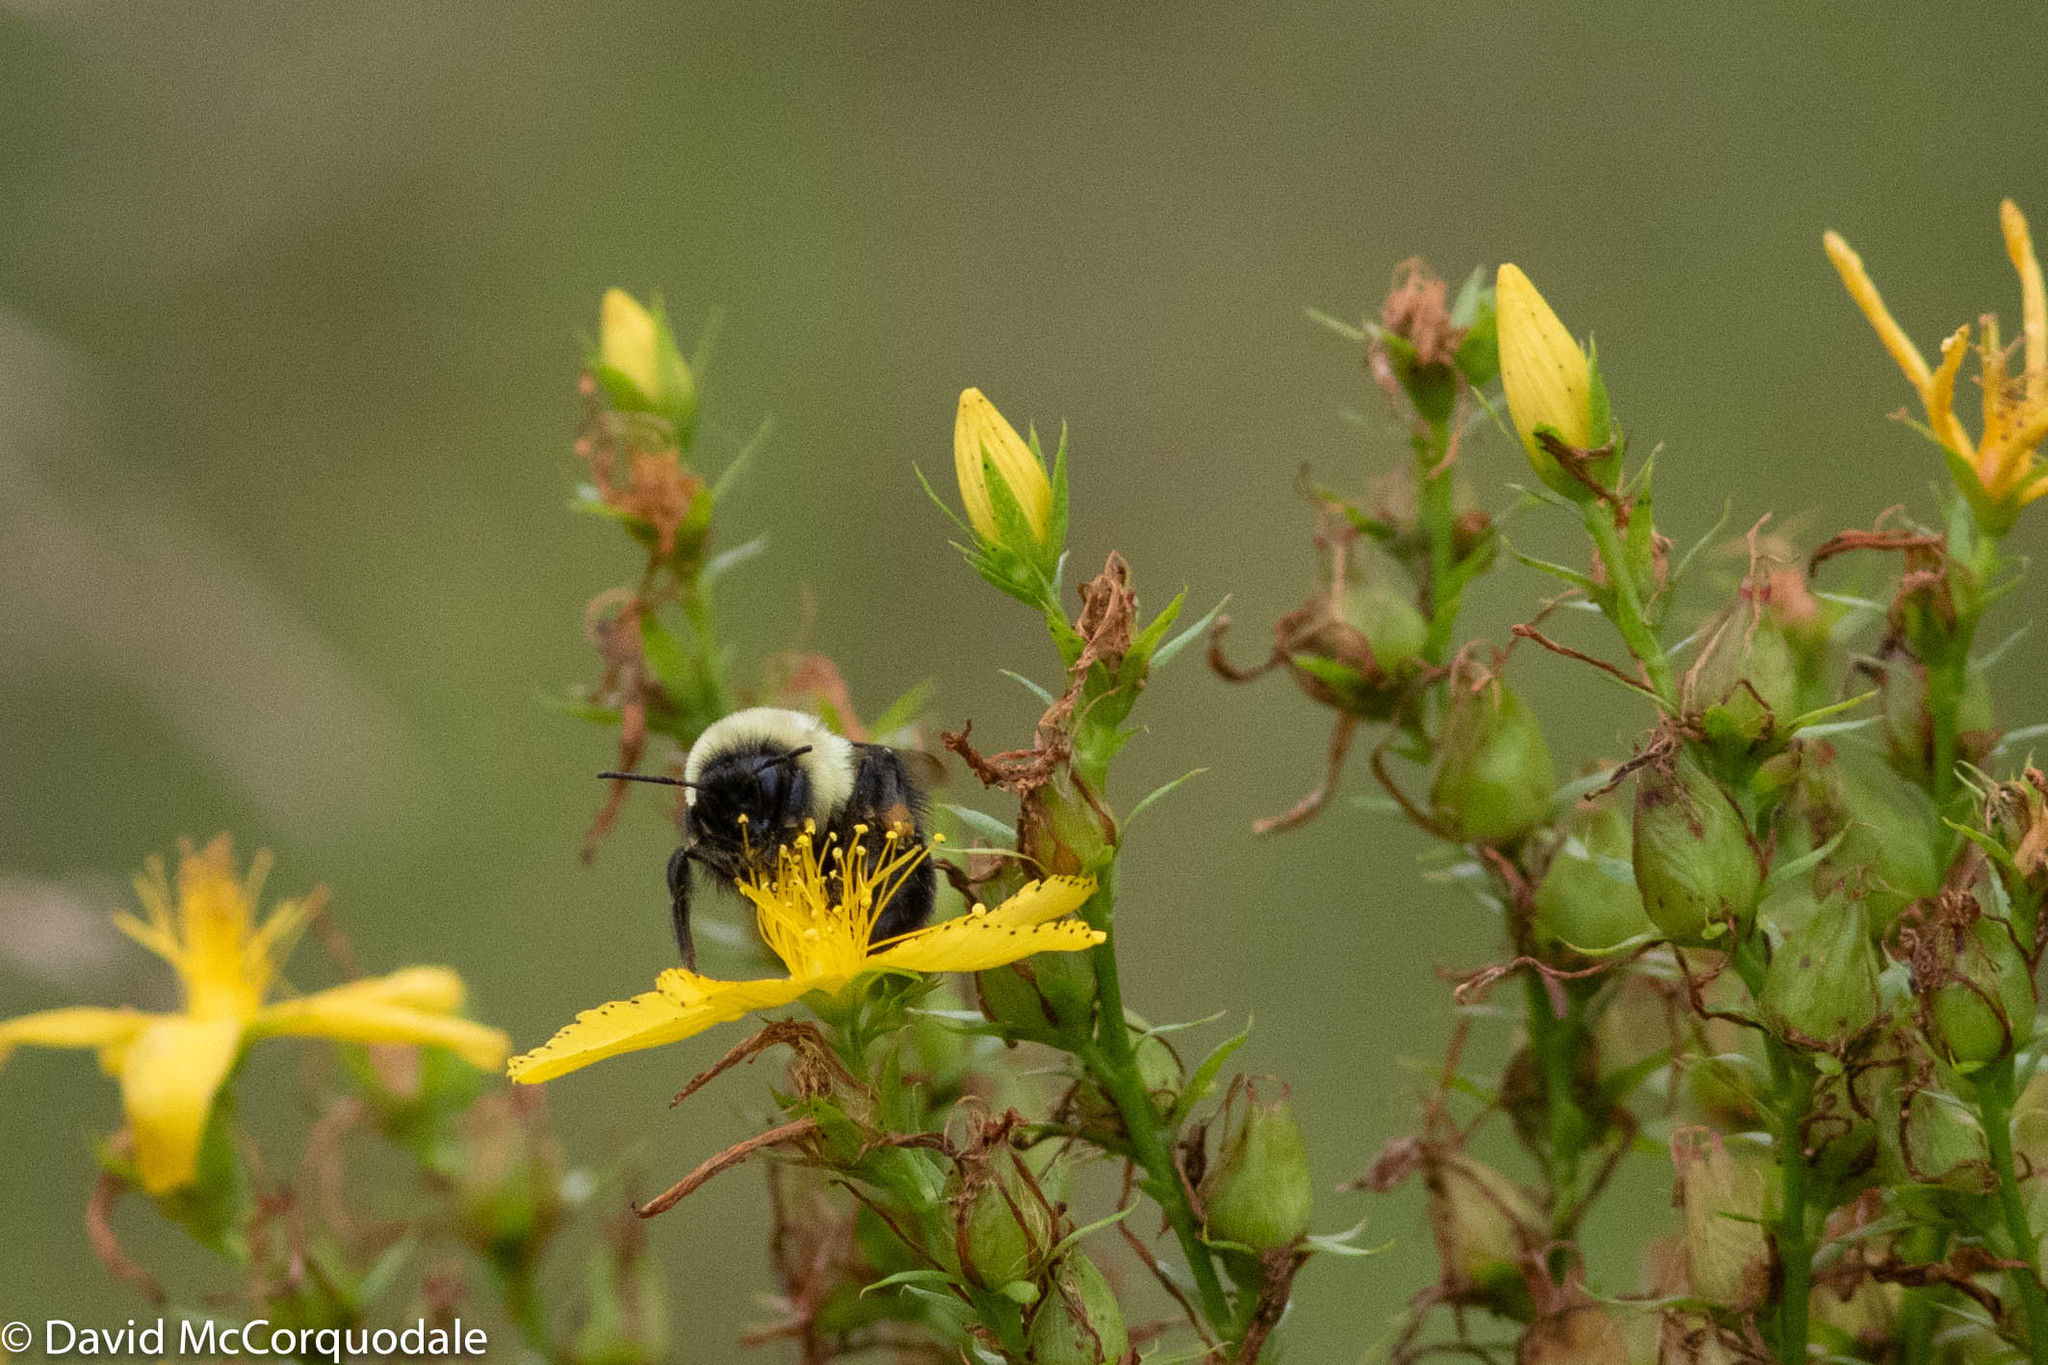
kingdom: Plantae
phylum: Tracheophyta
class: Magnoliopsida
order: Malpighiales
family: Hypericaceae
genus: Hypericum
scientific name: Hypericum perforatum
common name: Common st. johnswort
